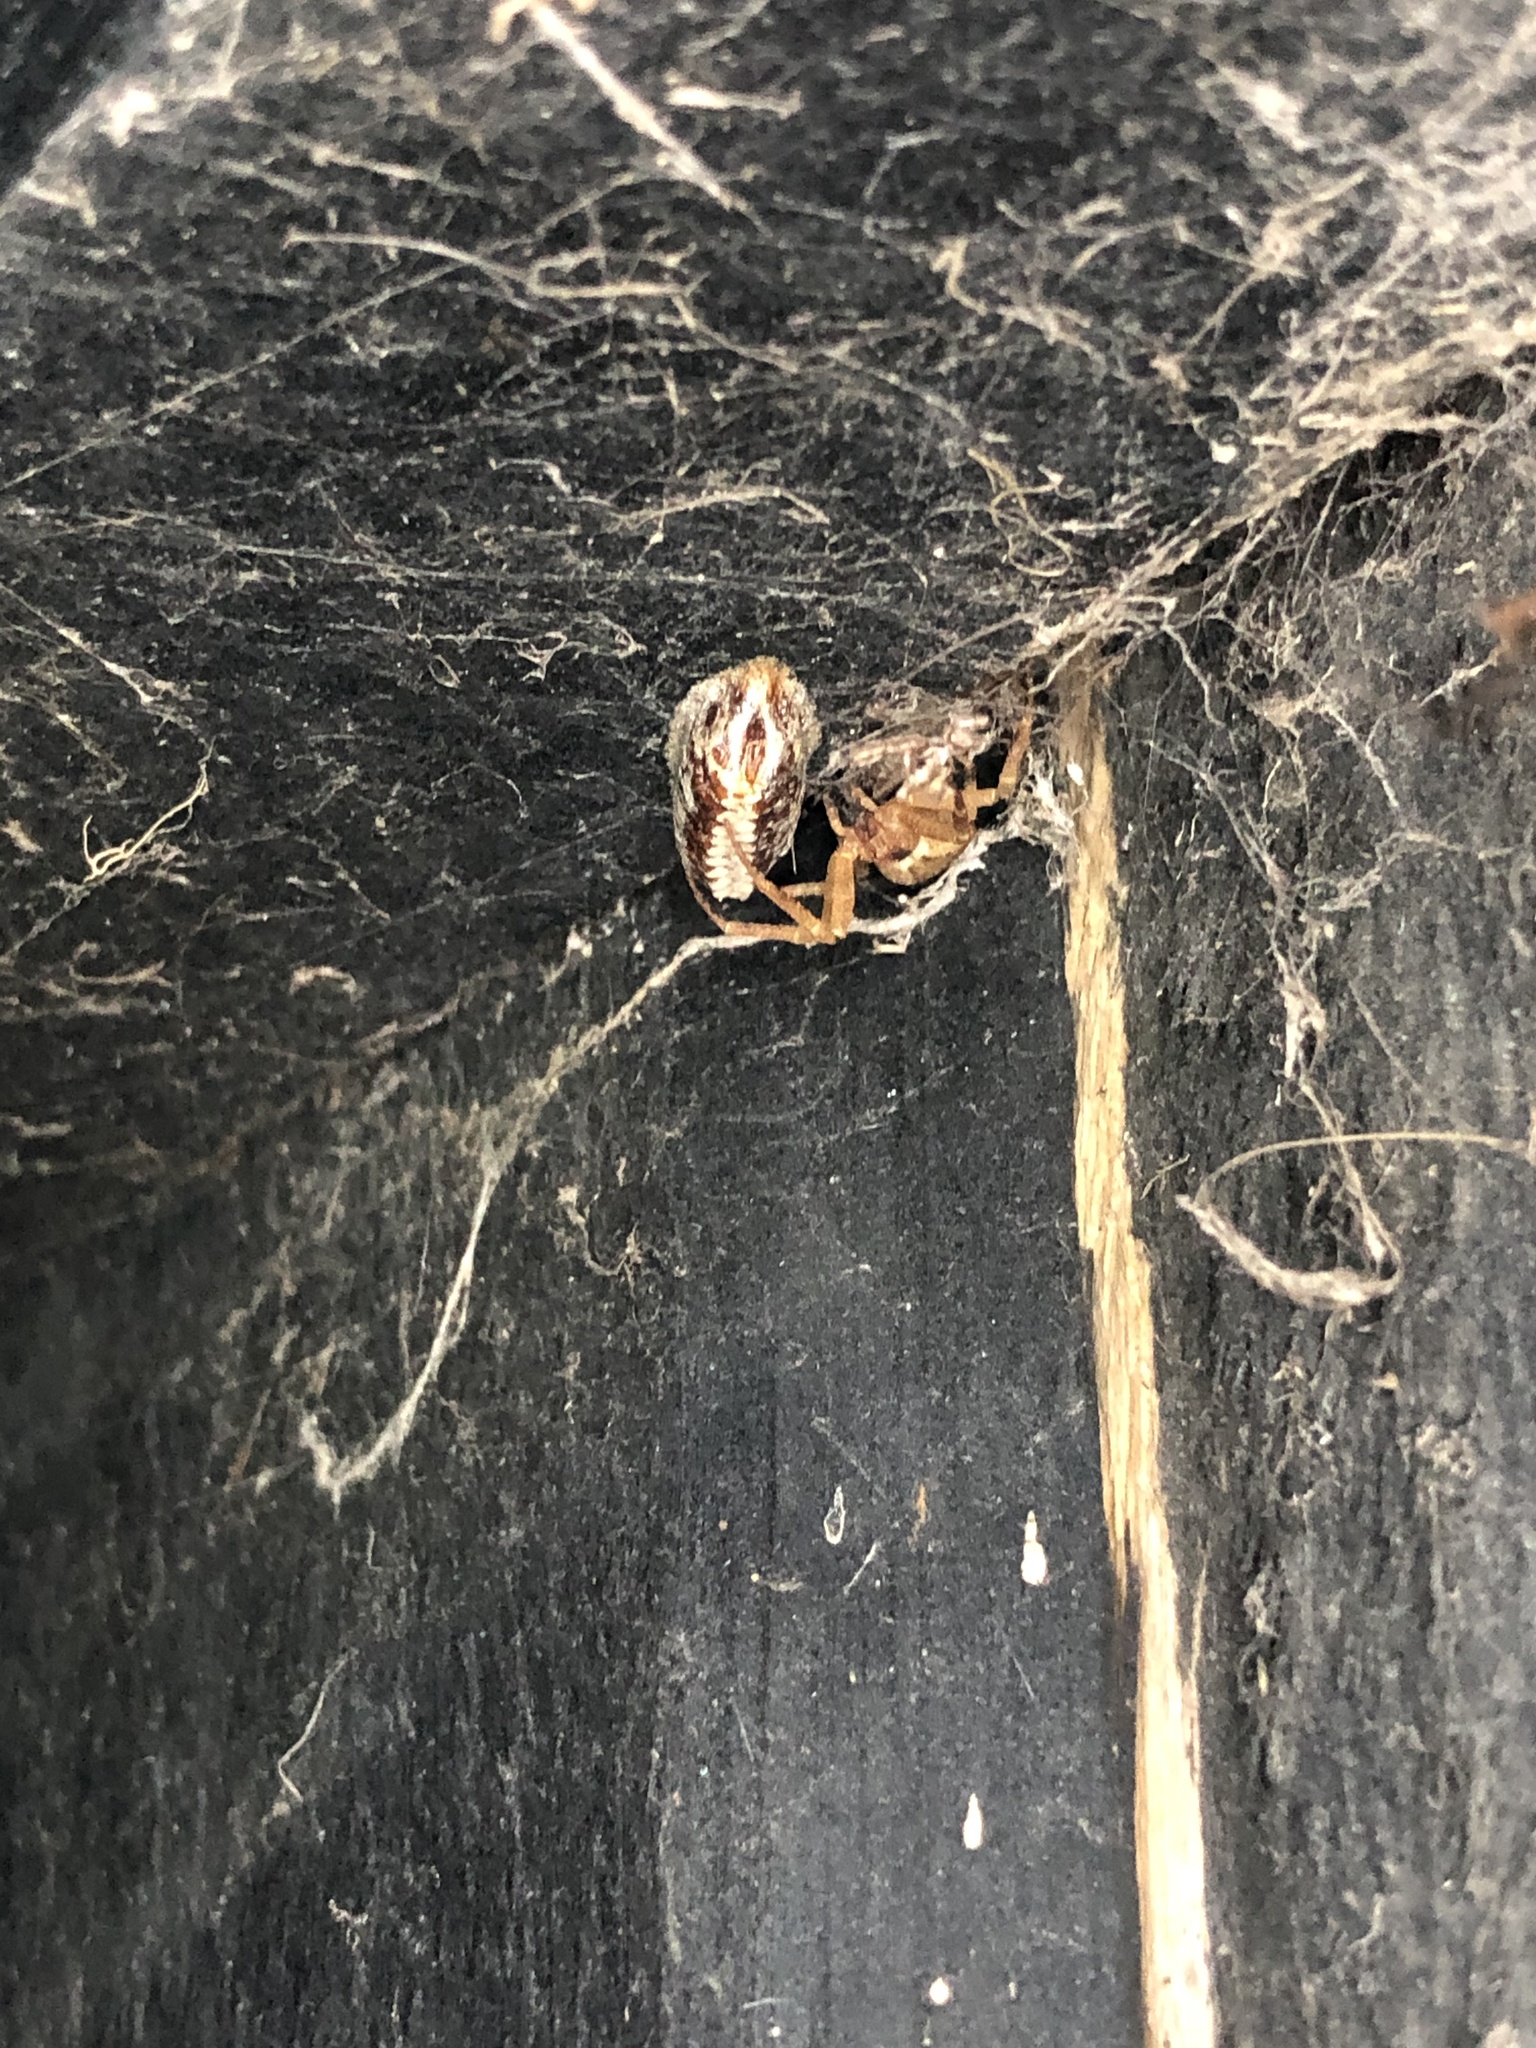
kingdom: Animalia
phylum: Arthropoda
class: Insecta
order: Mantodea
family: Mantidae
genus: Orthodera
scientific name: Orthodera novaezealandiae
